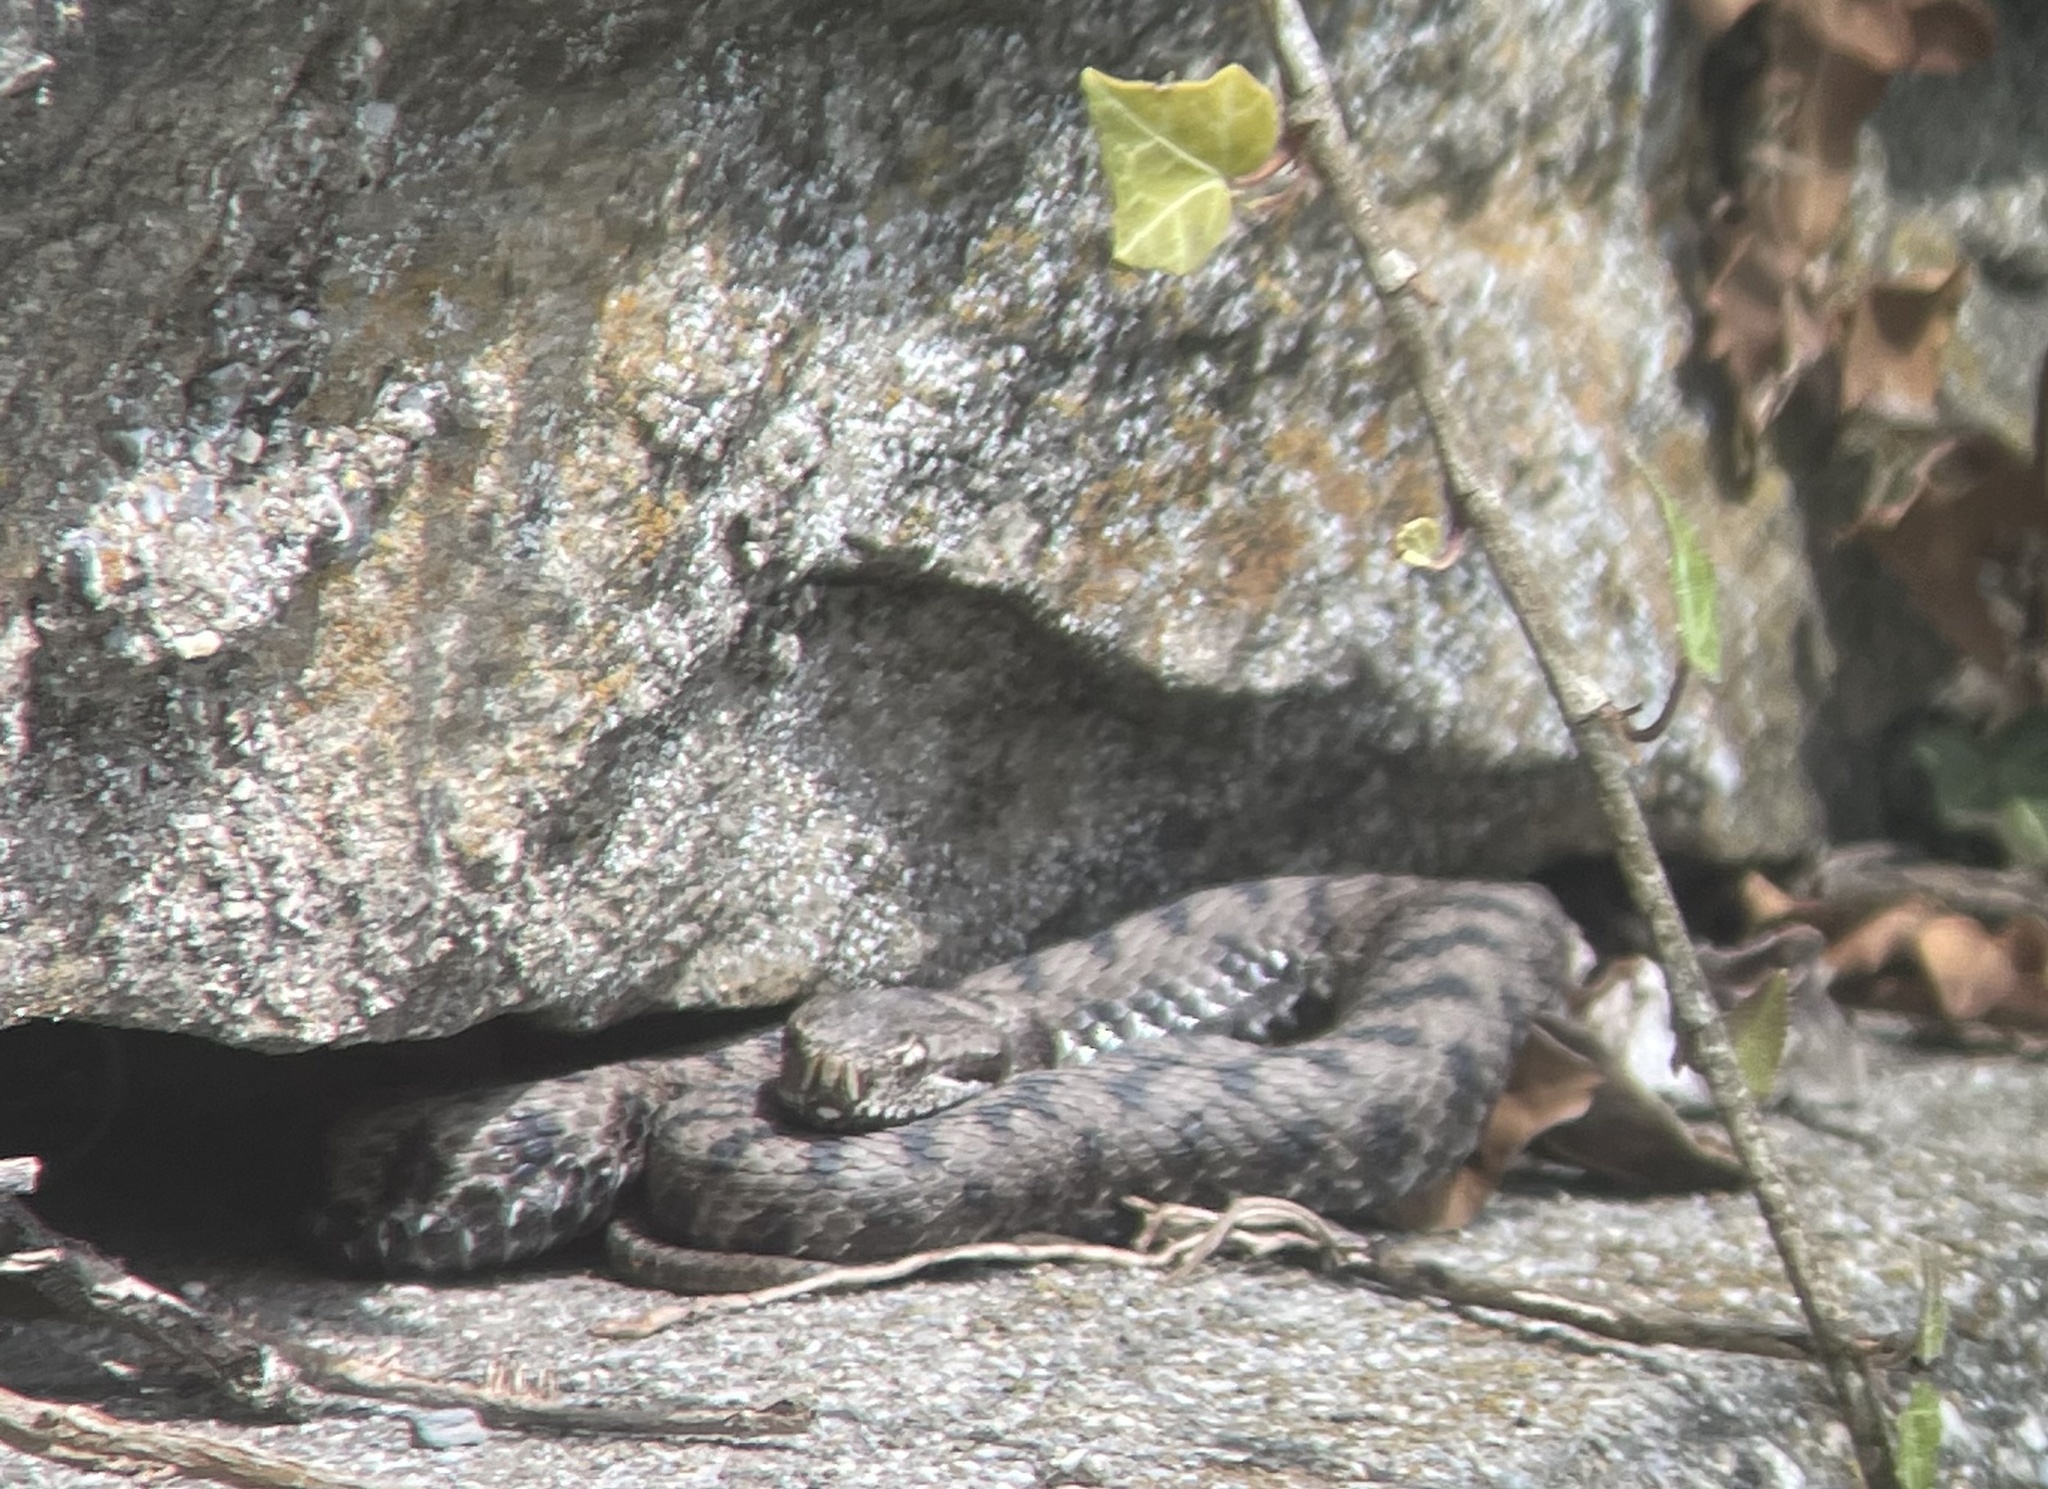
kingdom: Animalia
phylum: Chordata
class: Squamata
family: Viperidae
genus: Vipera
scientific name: Vipera aspis
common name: Asp viper
